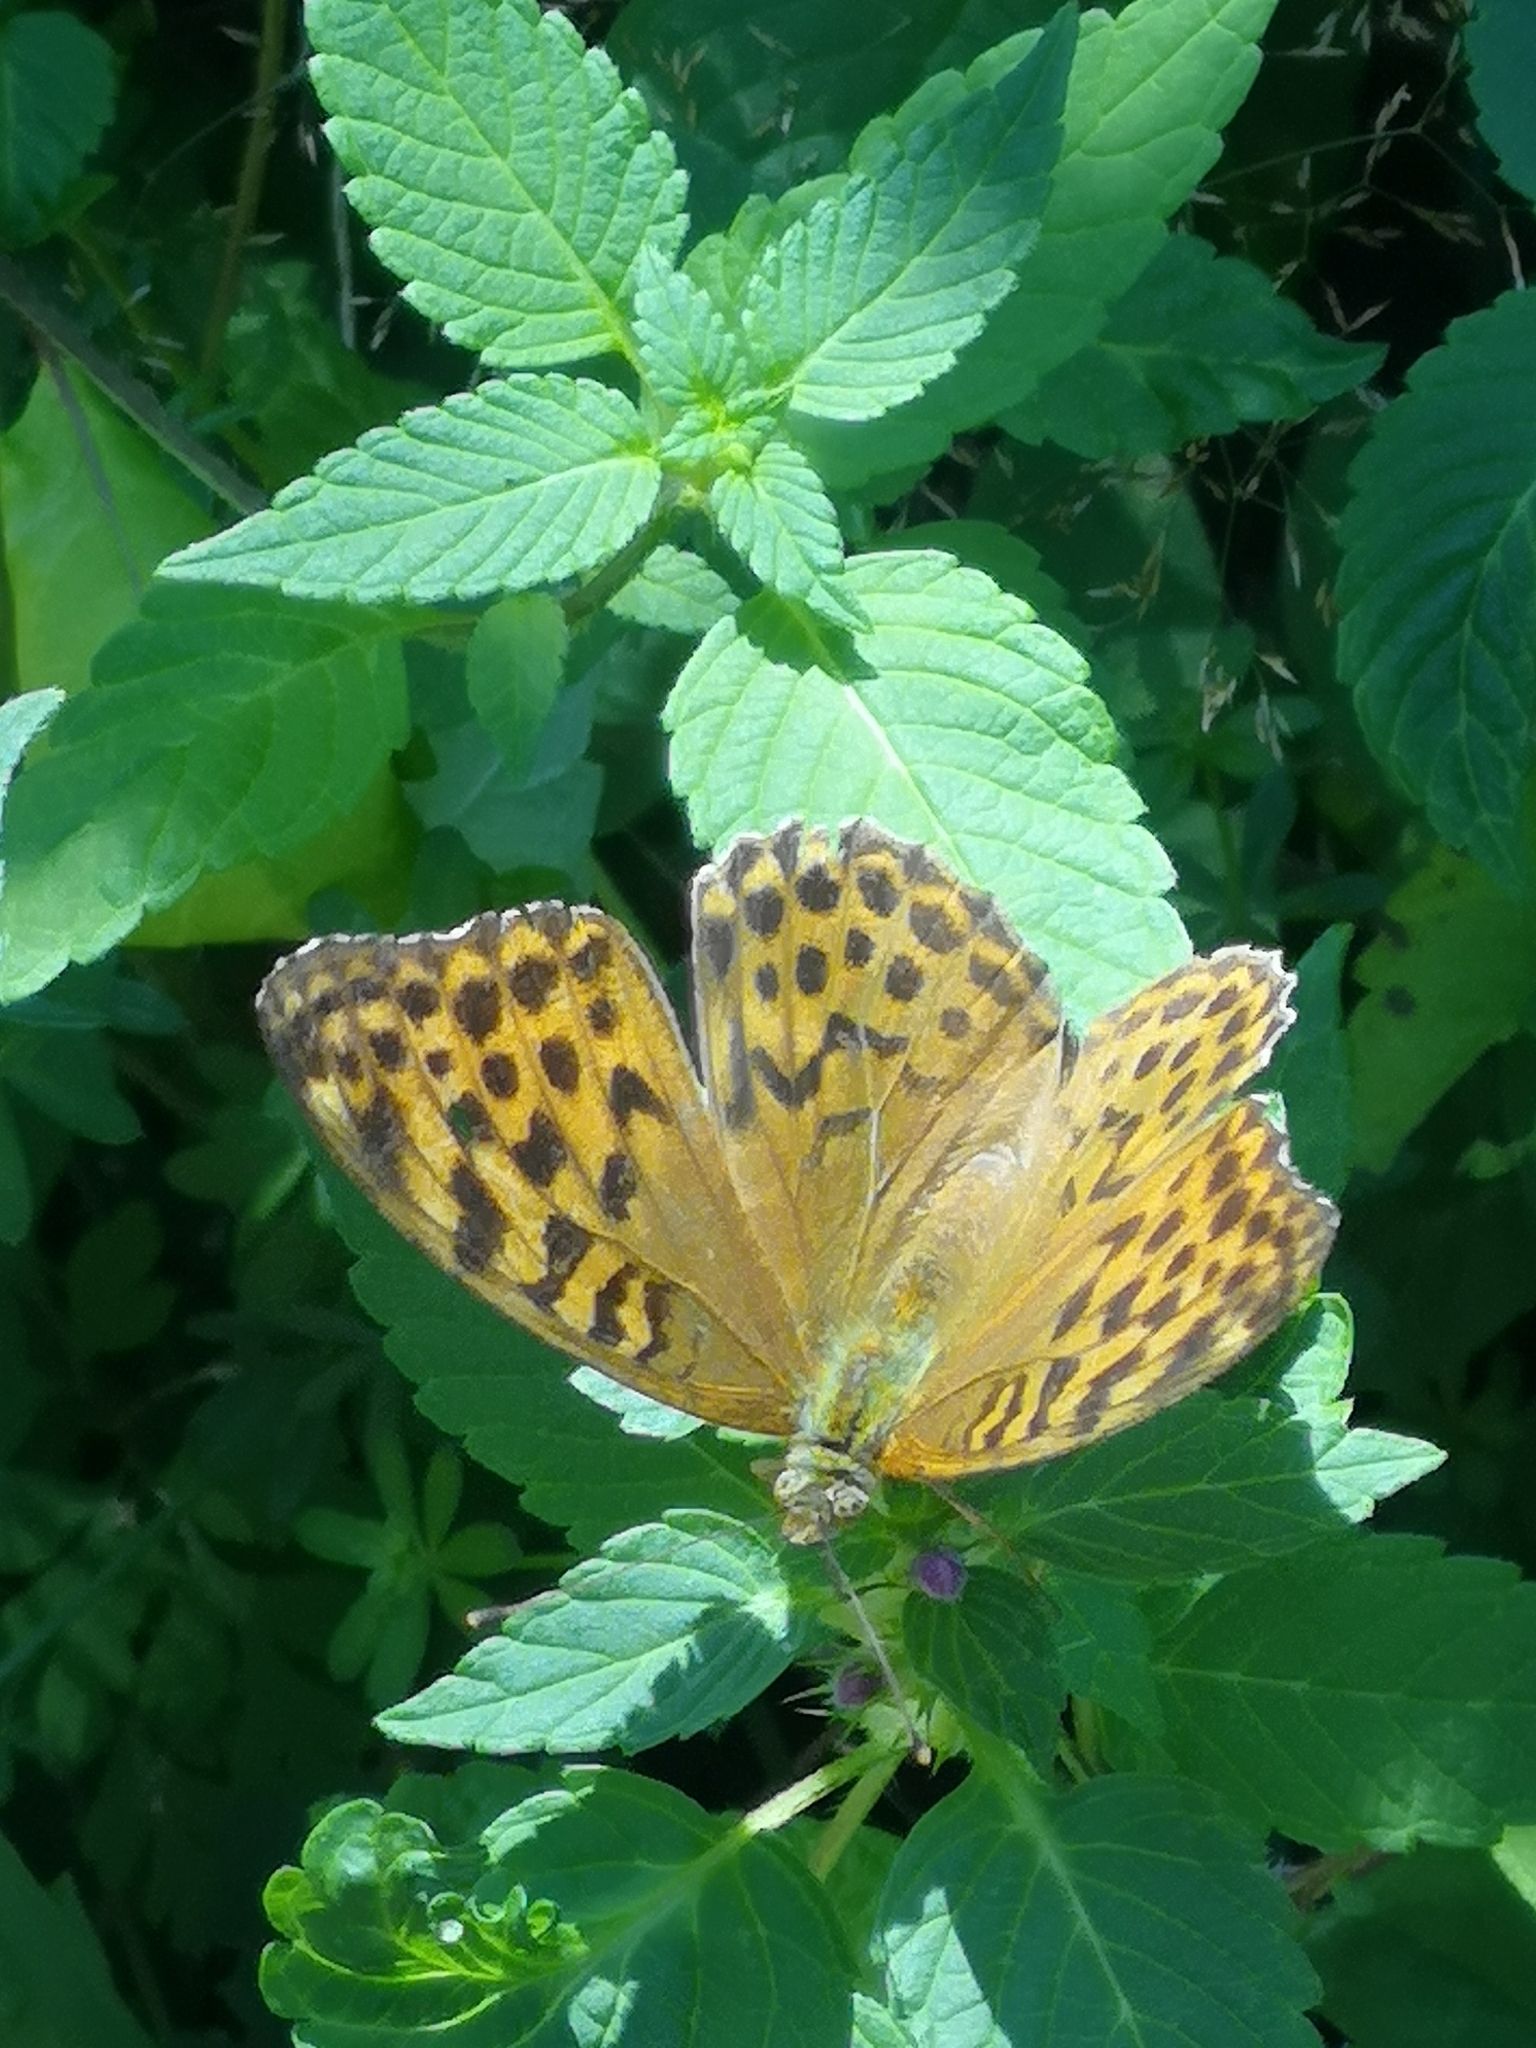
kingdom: Animalia
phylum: Arthropoda
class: Insecta
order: Lepidoptera
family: Nymphalidae
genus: Argynnis
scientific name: Argynnis paphia
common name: Silver-washed fritillary
